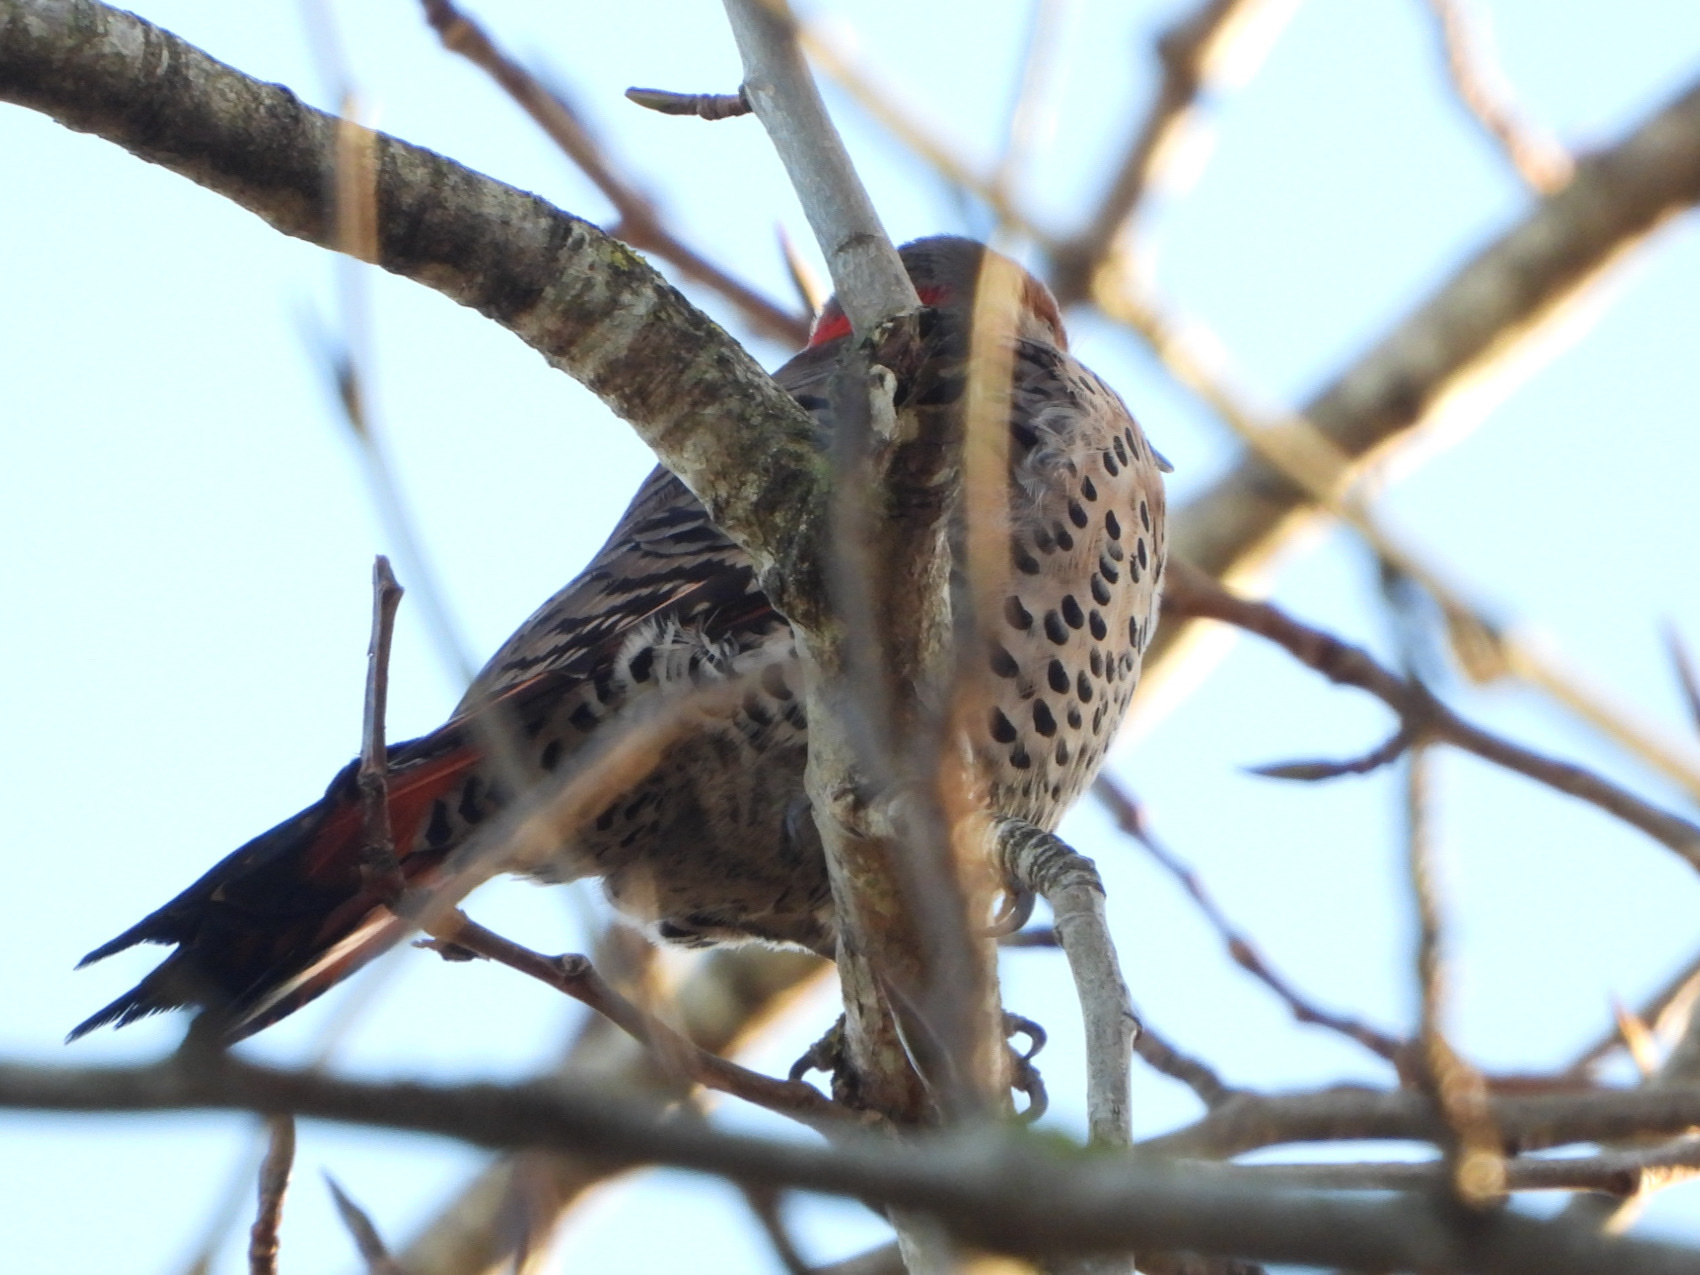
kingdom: Animalia
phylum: Chordata
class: Aves
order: Piciformes
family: Picidae
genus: Colaptes
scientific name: Colaptes
